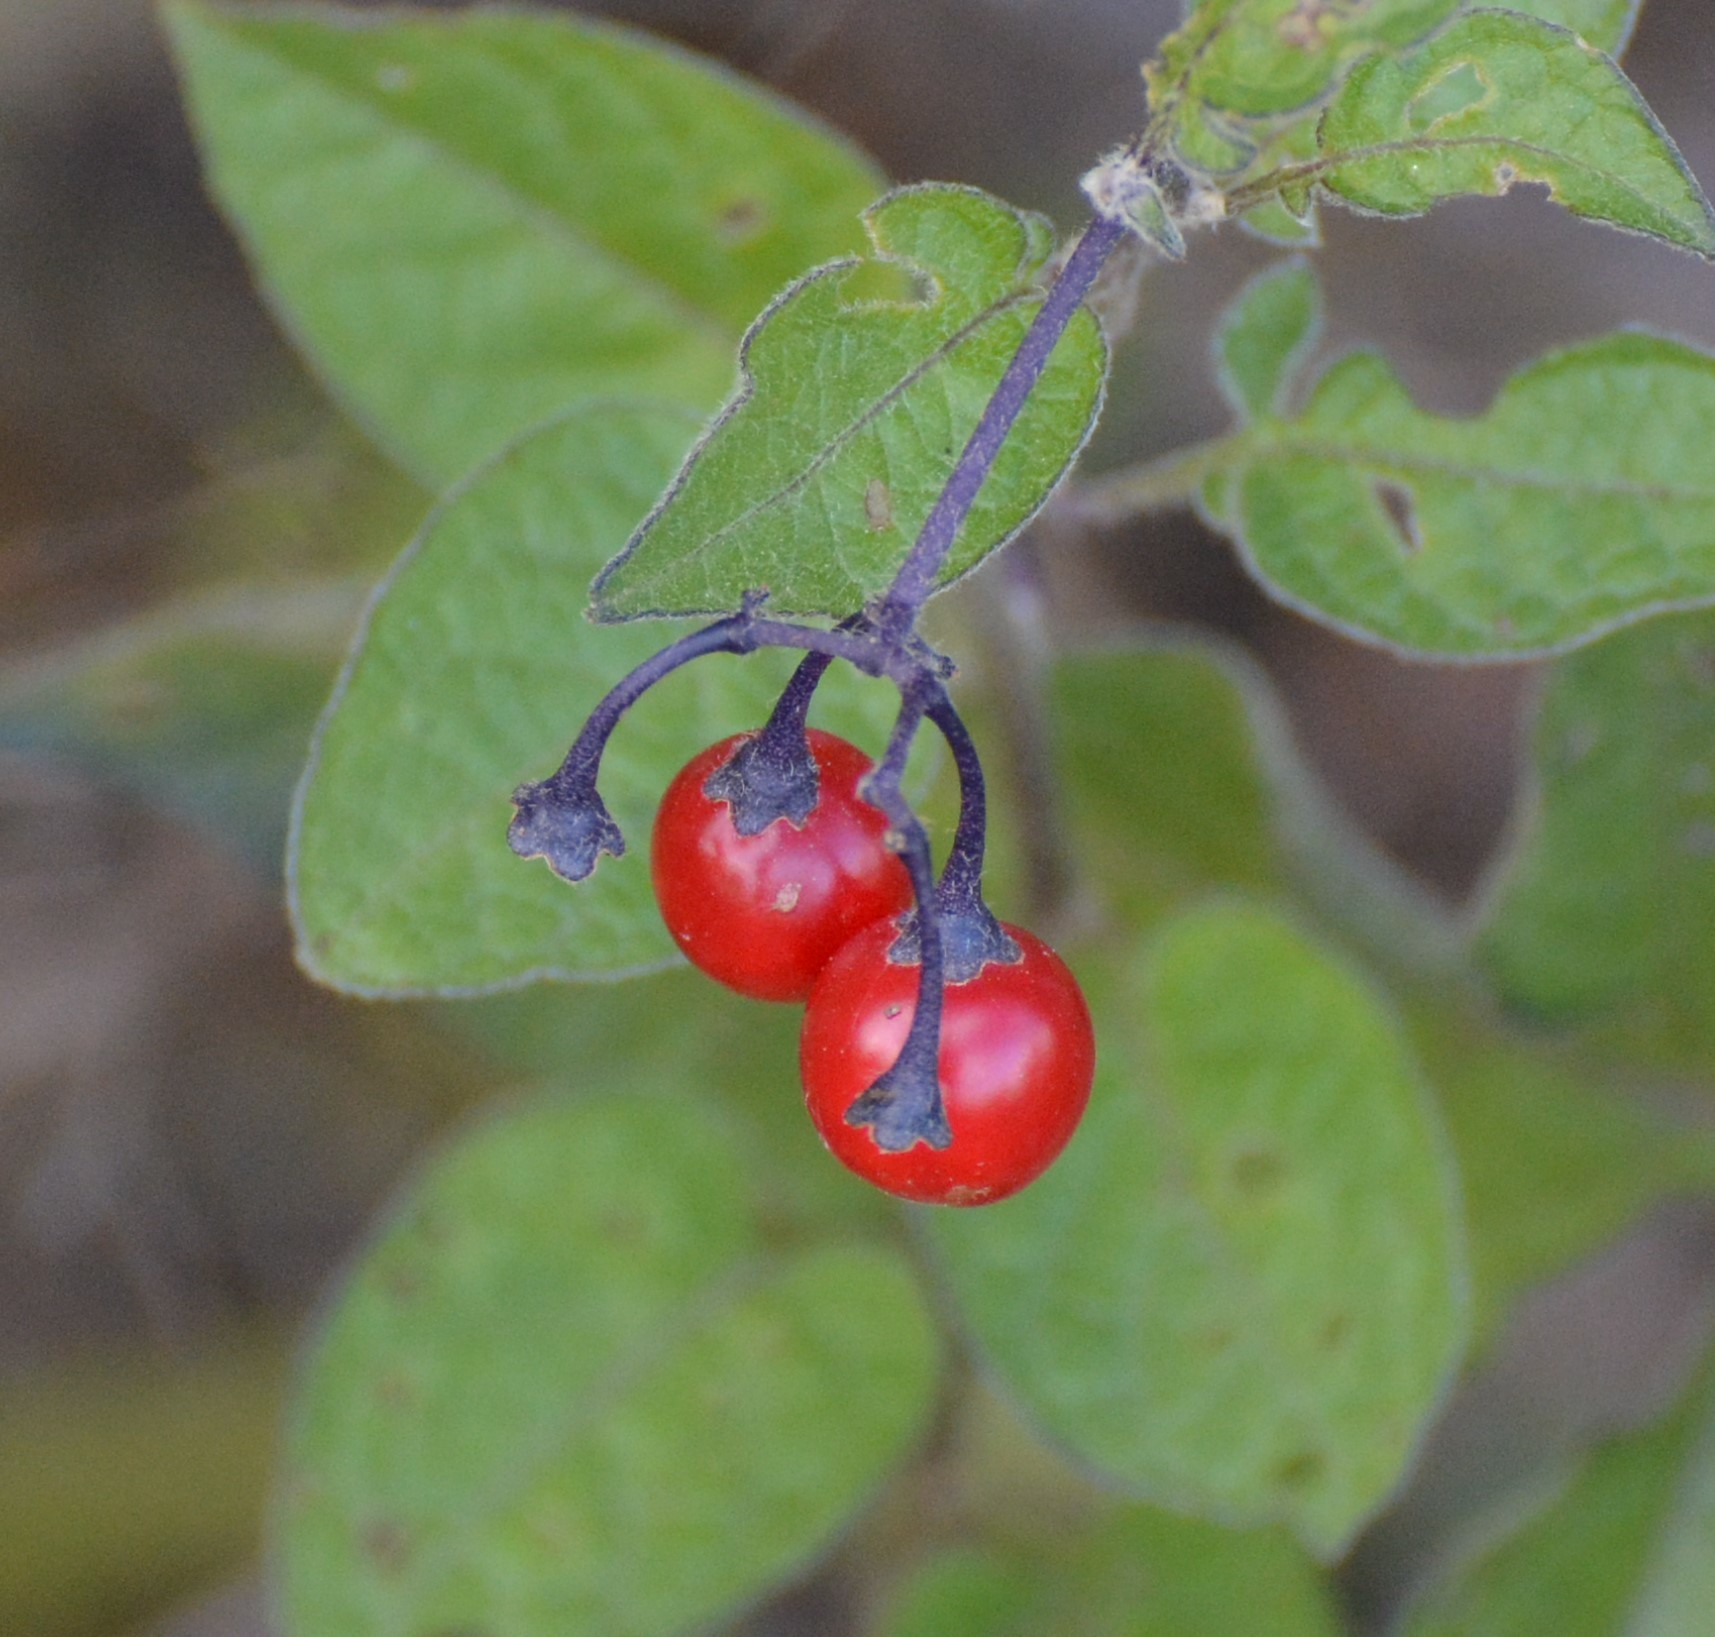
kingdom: Plantae
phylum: Tracheophyta
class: Magnoliopsida
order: Solanales
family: Solanaceae
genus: Solanum
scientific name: Solanum dulcamara
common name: Climbing nightshade
